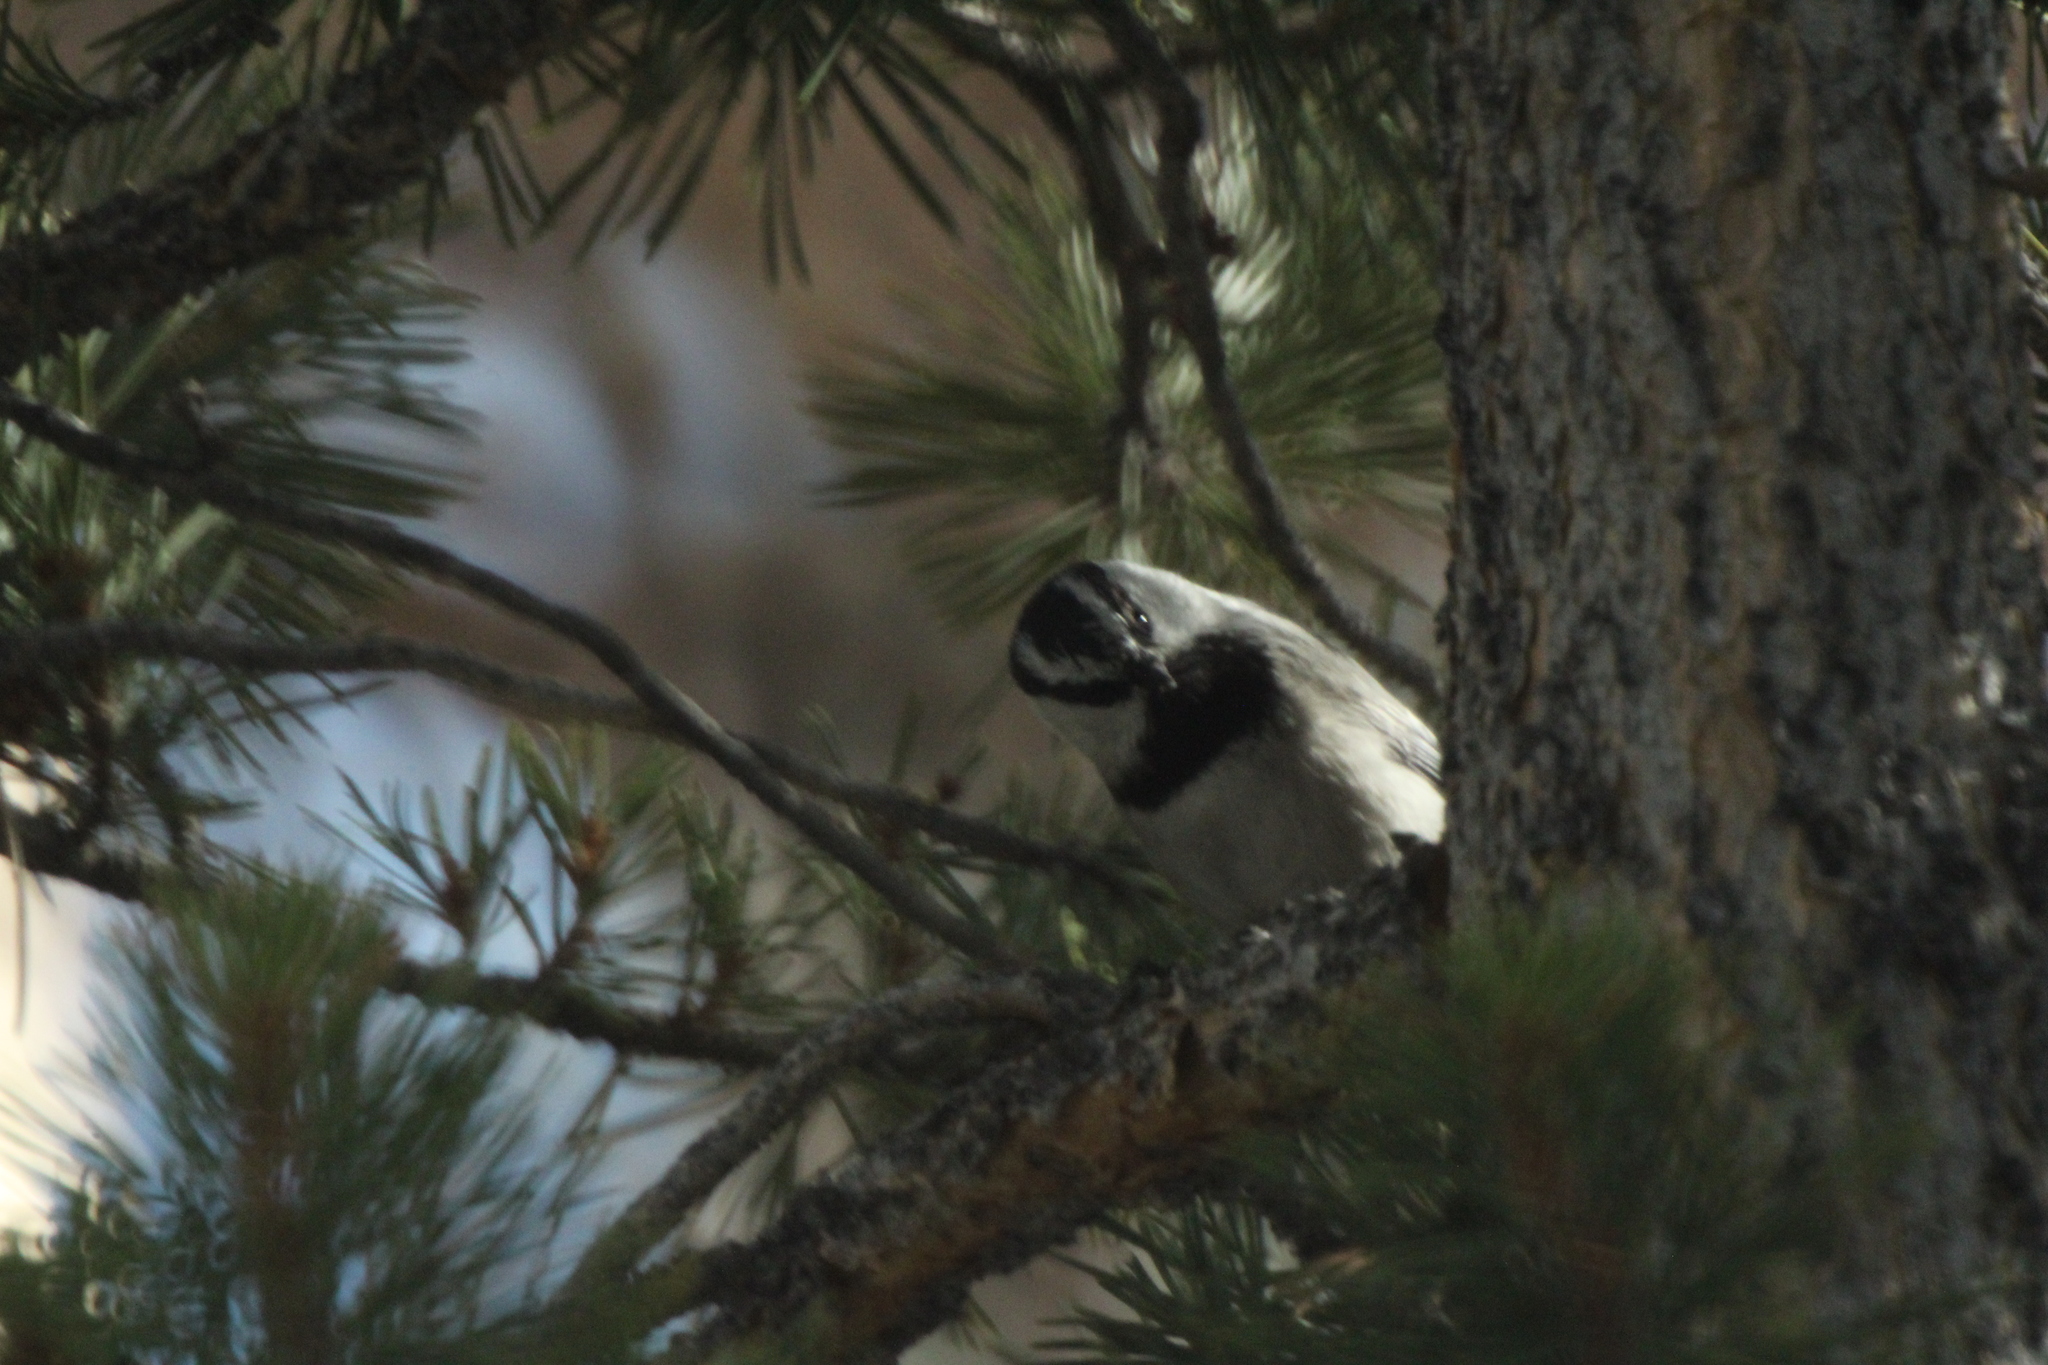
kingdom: Animalia
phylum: Chordata
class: Aves
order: Passeriformes
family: Paridae
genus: Poecile
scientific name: Poecile gambeli
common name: Mountain chickadee
